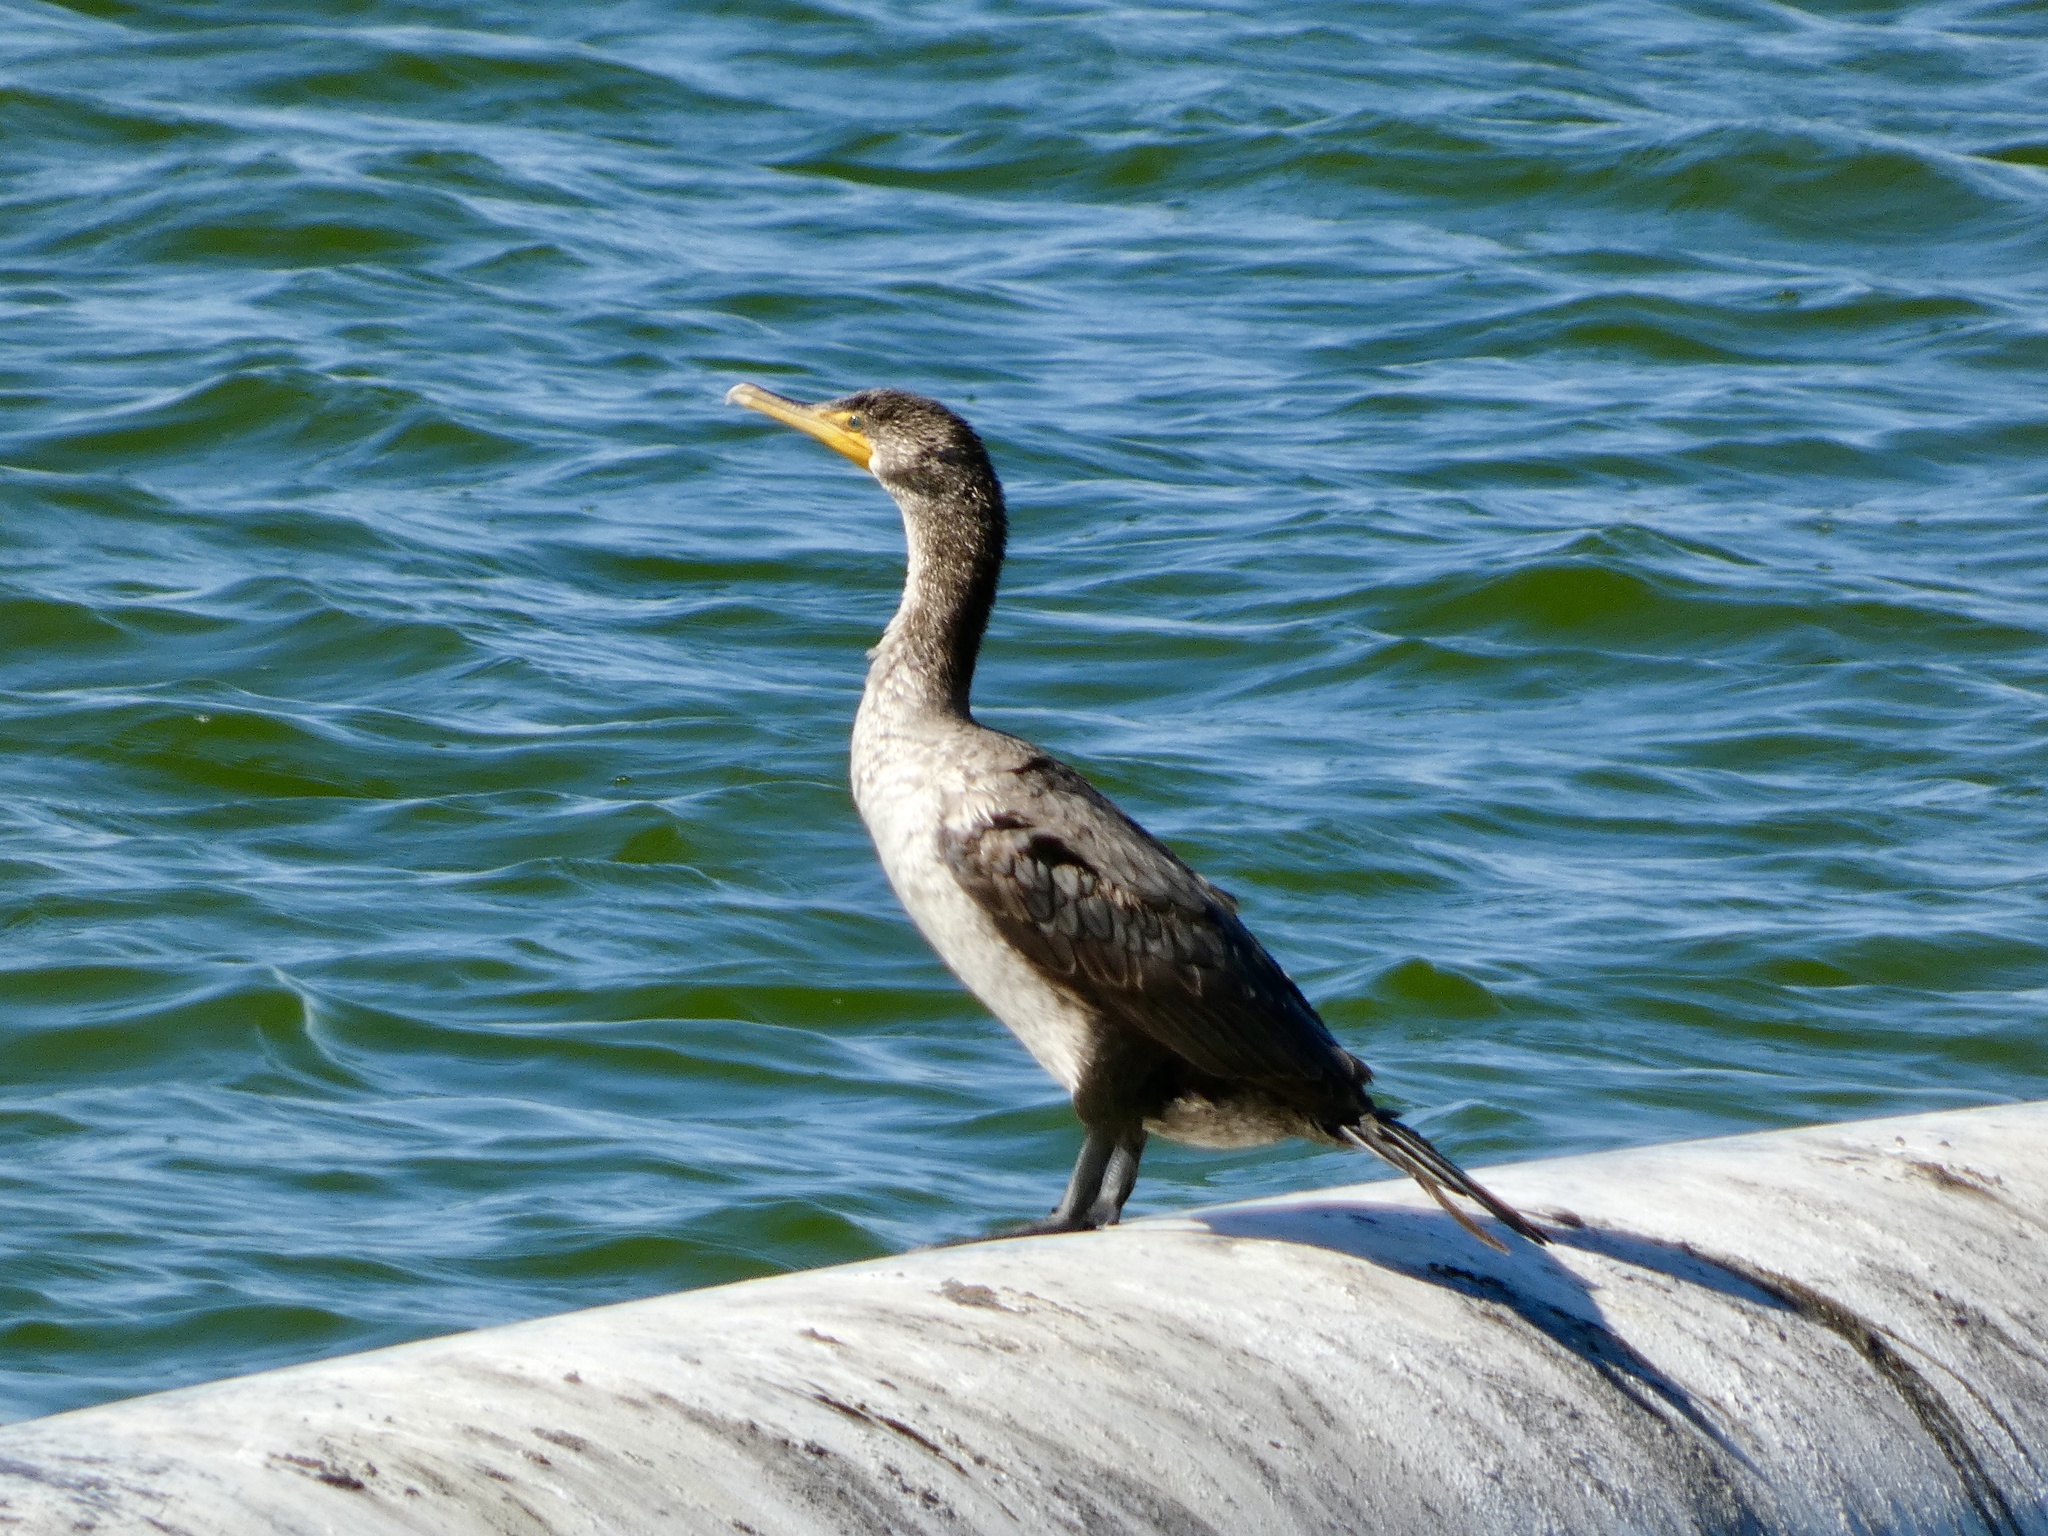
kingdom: Animalia
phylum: Chordata
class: Aves
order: Suliformes
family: Phalacrocoracidae
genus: Phalacrocorax
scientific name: Phalacrocorax auritus
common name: Double-crested cormorant
